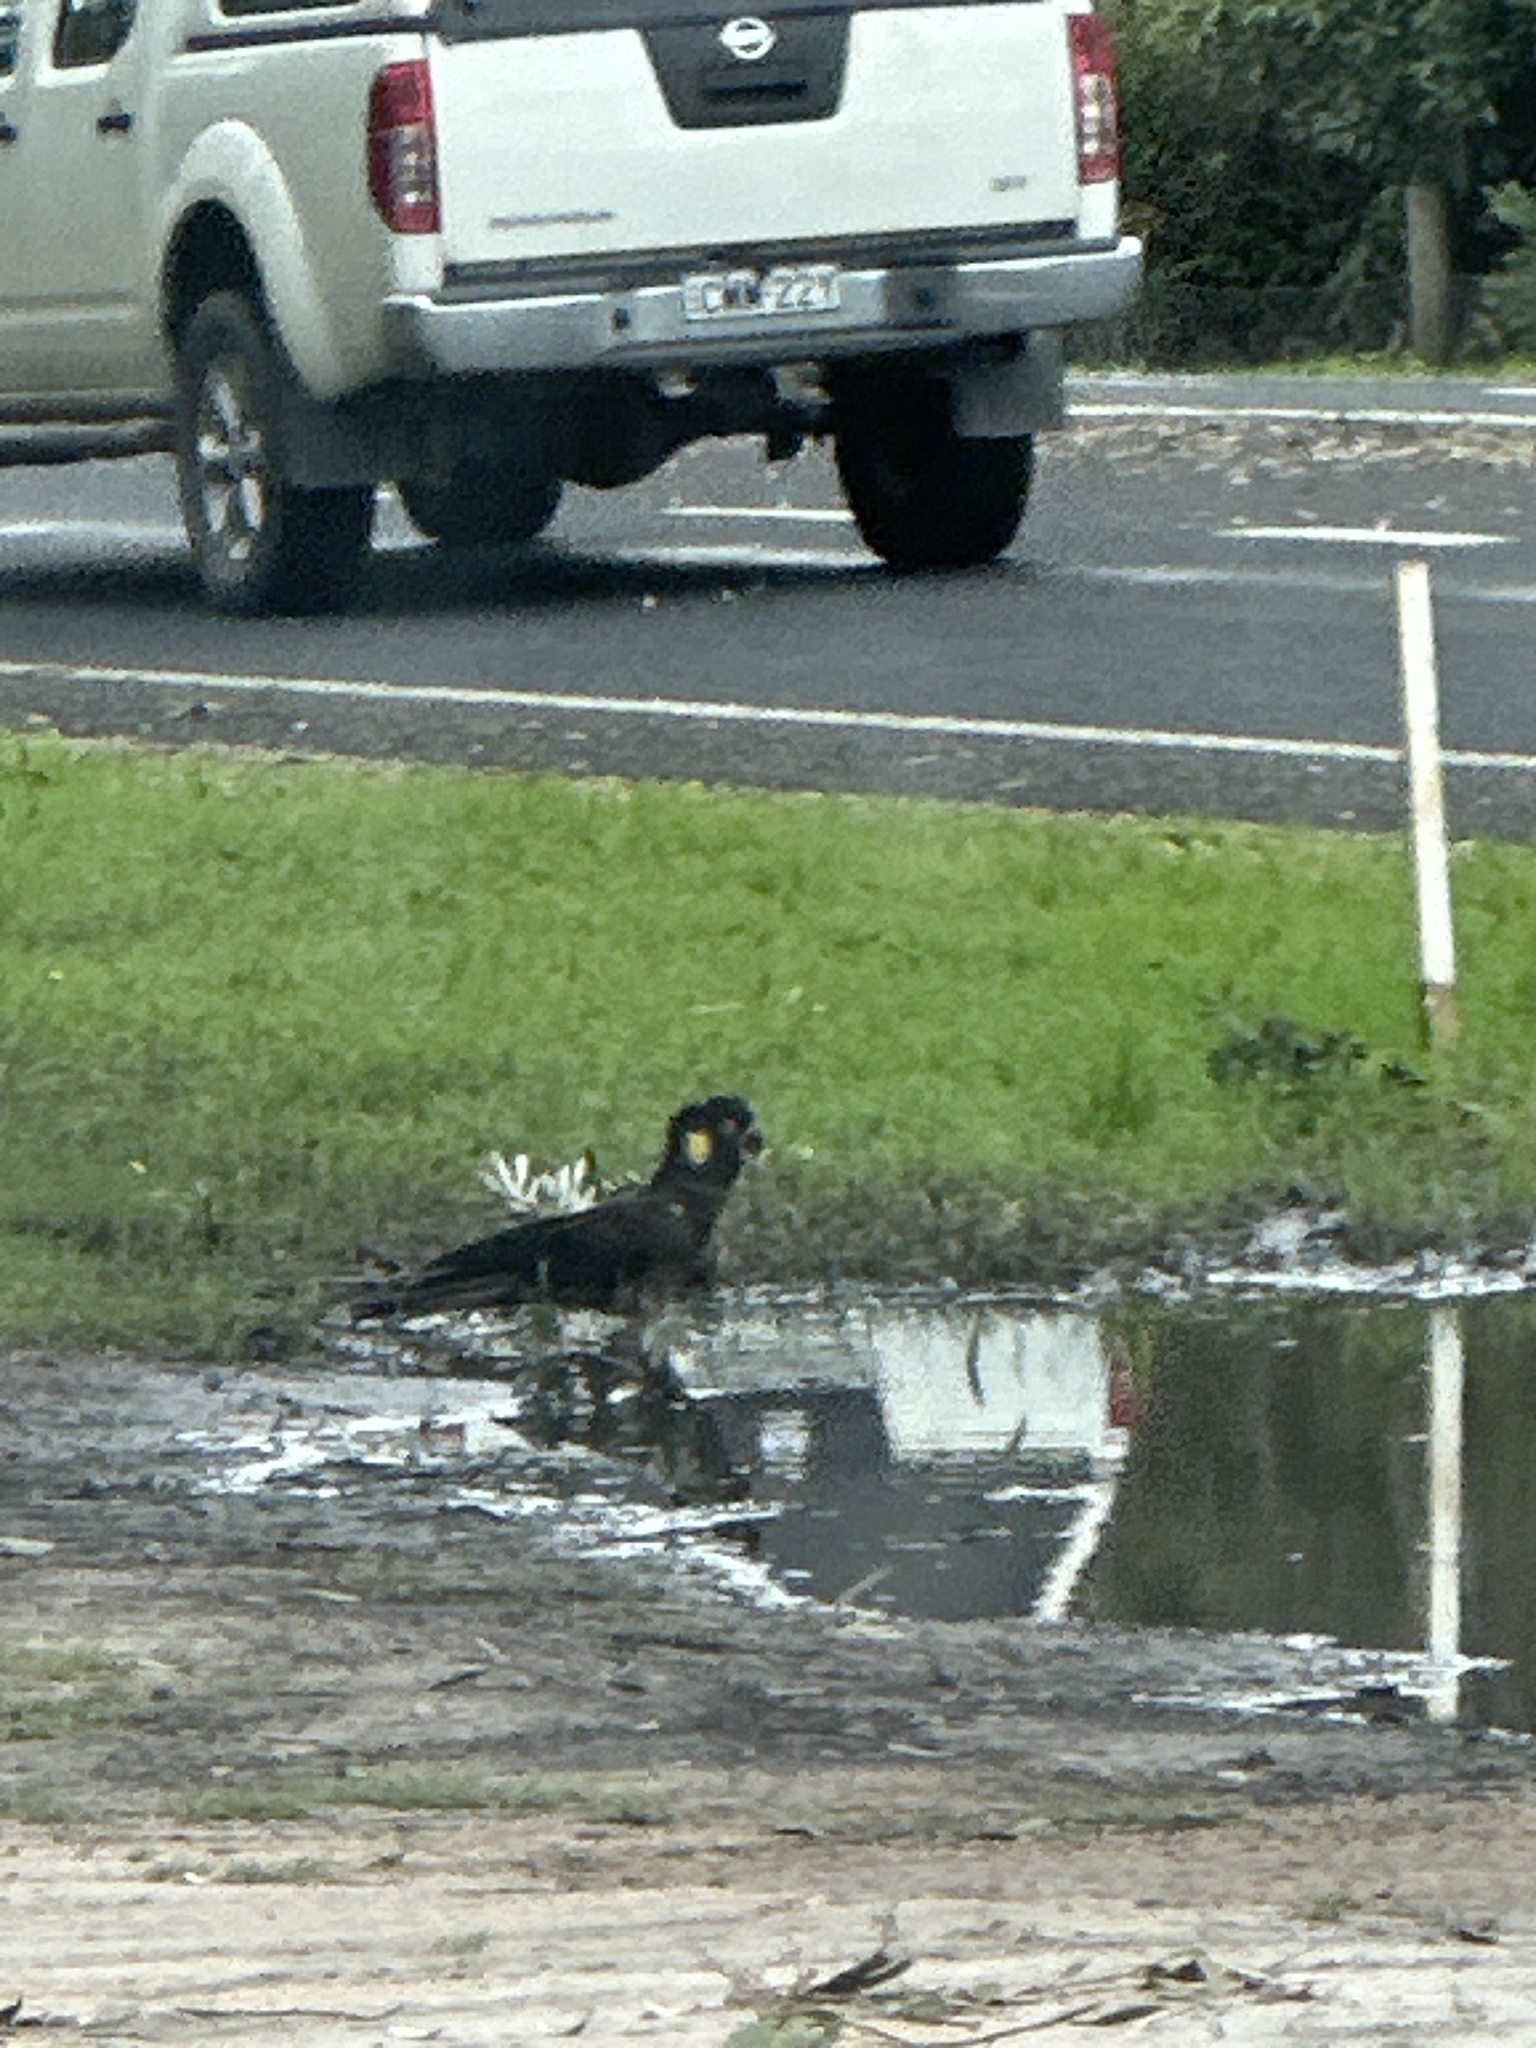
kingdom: Animalia
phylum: Chordata
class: Aves
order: Psittaciformes
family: Cacatuidae
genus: Zanda
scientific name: Zanda funerea
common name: Yellow-tailed black-cockatoo
